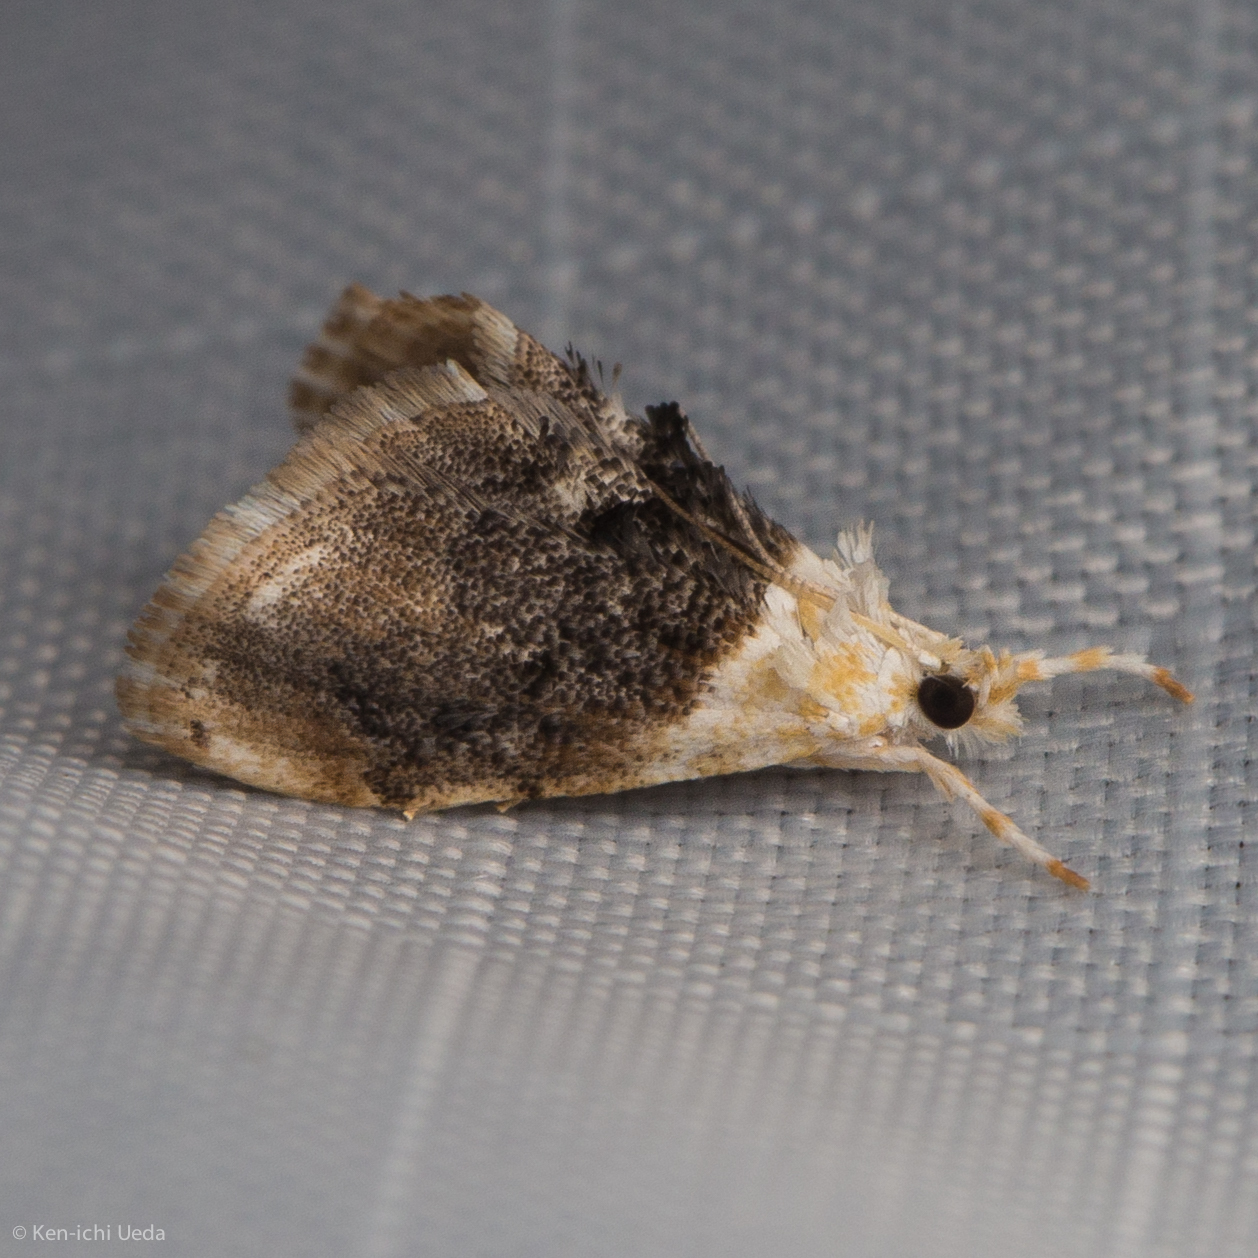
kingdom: Animalia
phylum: Arthropoda
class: Insecta
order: Lepidoptera
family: Crambidae
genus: Lipocosmodes
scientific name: Lipocosmodes fuliginosalis
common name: Sooty lipocosmodes moth
